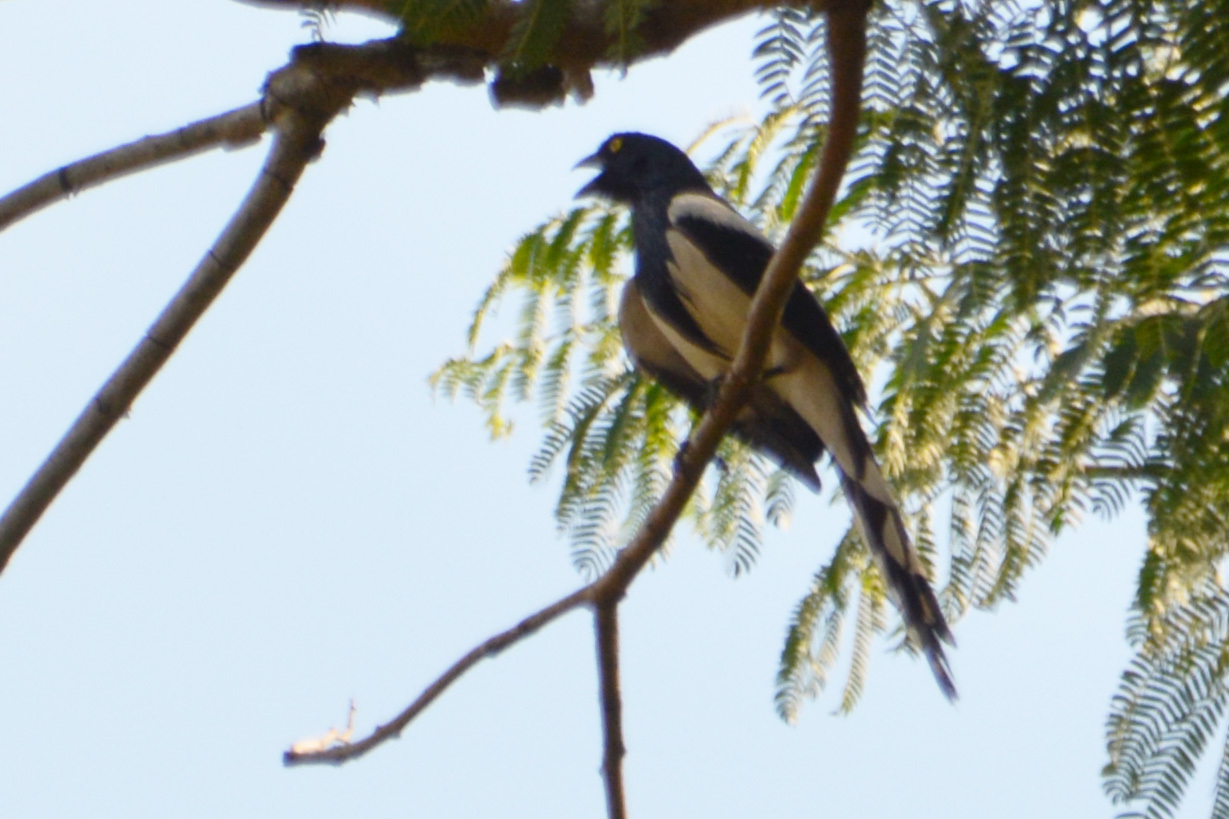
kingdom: Animalia
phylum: Chordata
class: Aves
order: Passeriformes
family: Thraupidae
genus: Cissopis
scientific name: Cissopis leverianus
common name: Magpie tanager
